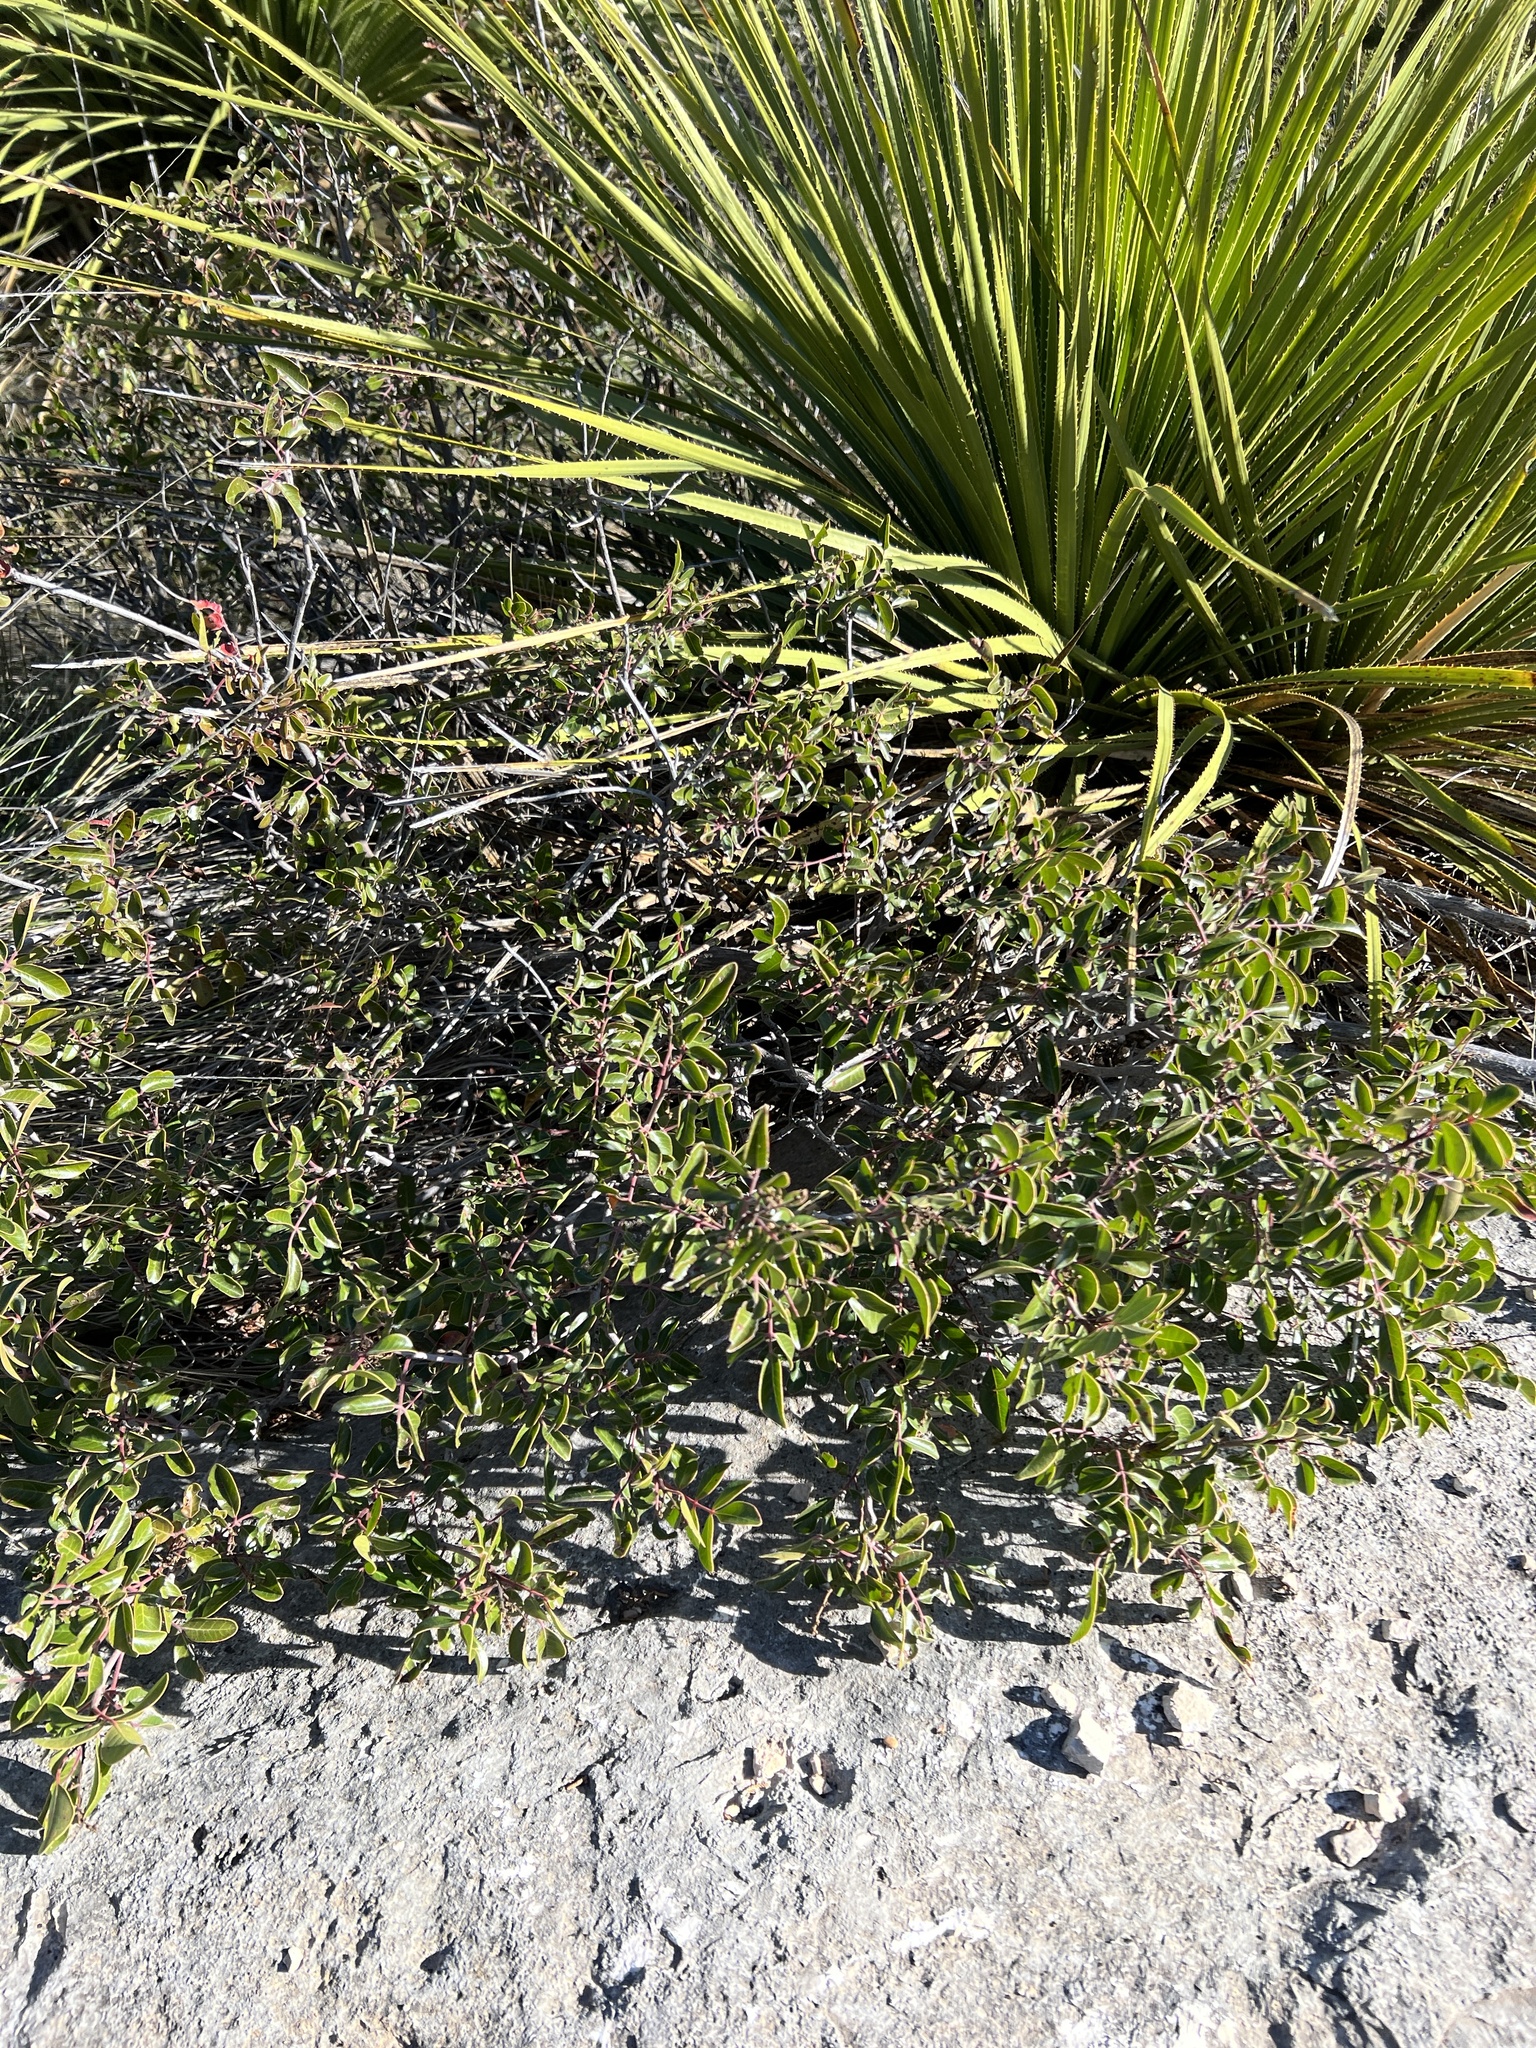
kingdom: Plantae
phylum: Tracheophyta
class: Magnoliopsida
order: Sapindales
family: Anacardiaceae
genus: Rhus
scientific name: Rhus virens
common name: Evergreen sumac
